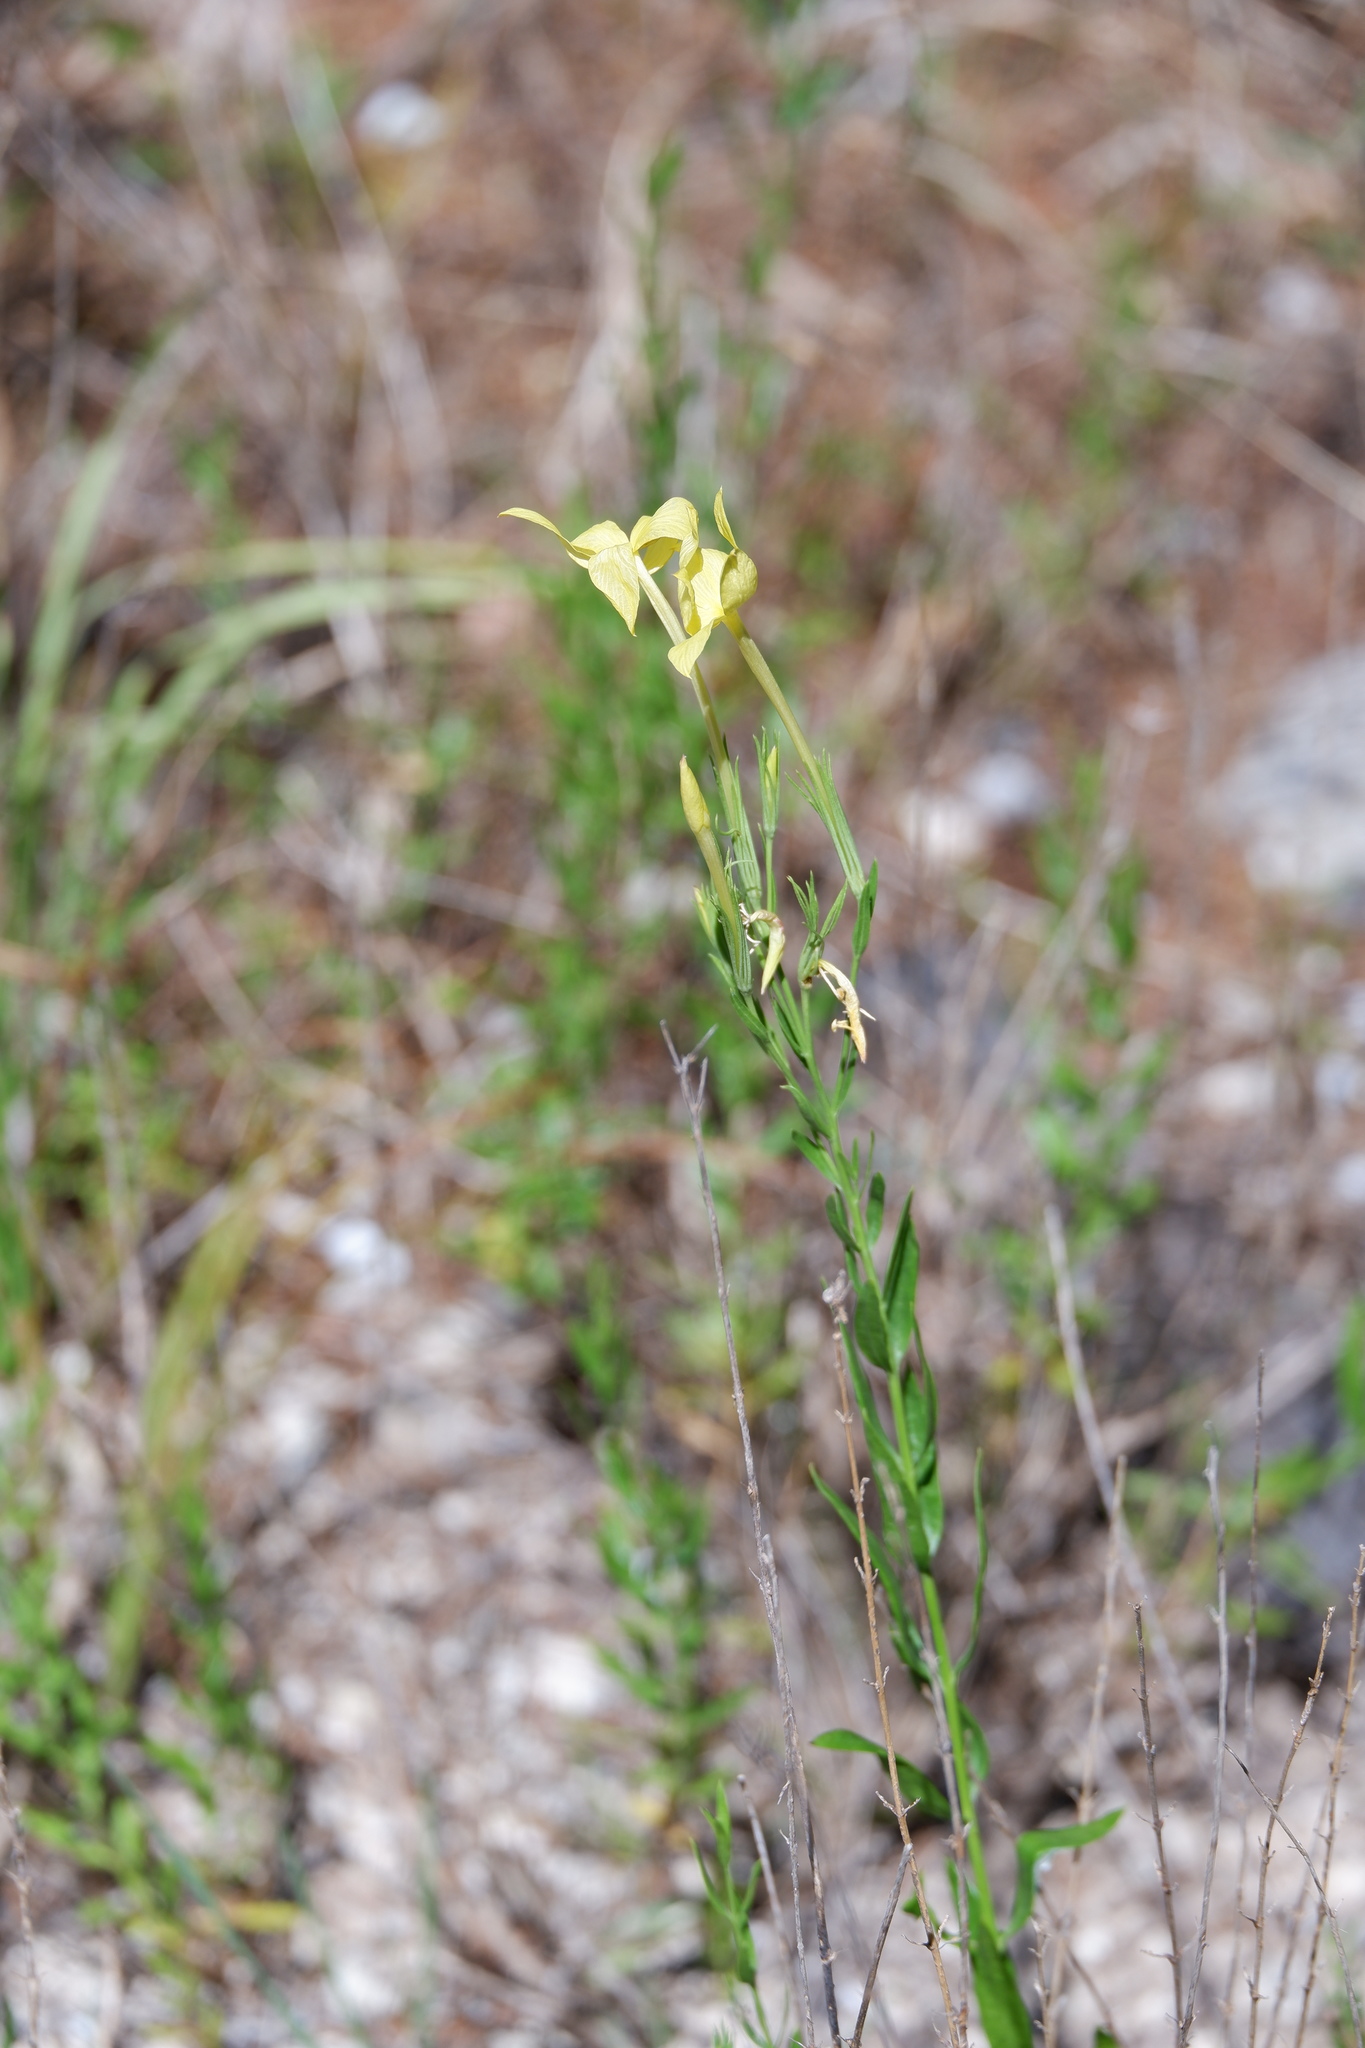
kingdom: Plantae
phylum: Tracheophyta
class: Magnoliopsida
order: Lamiales
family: Oleaceae
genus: Menodora
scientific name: Menodora longiflora
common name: Showy menodora
